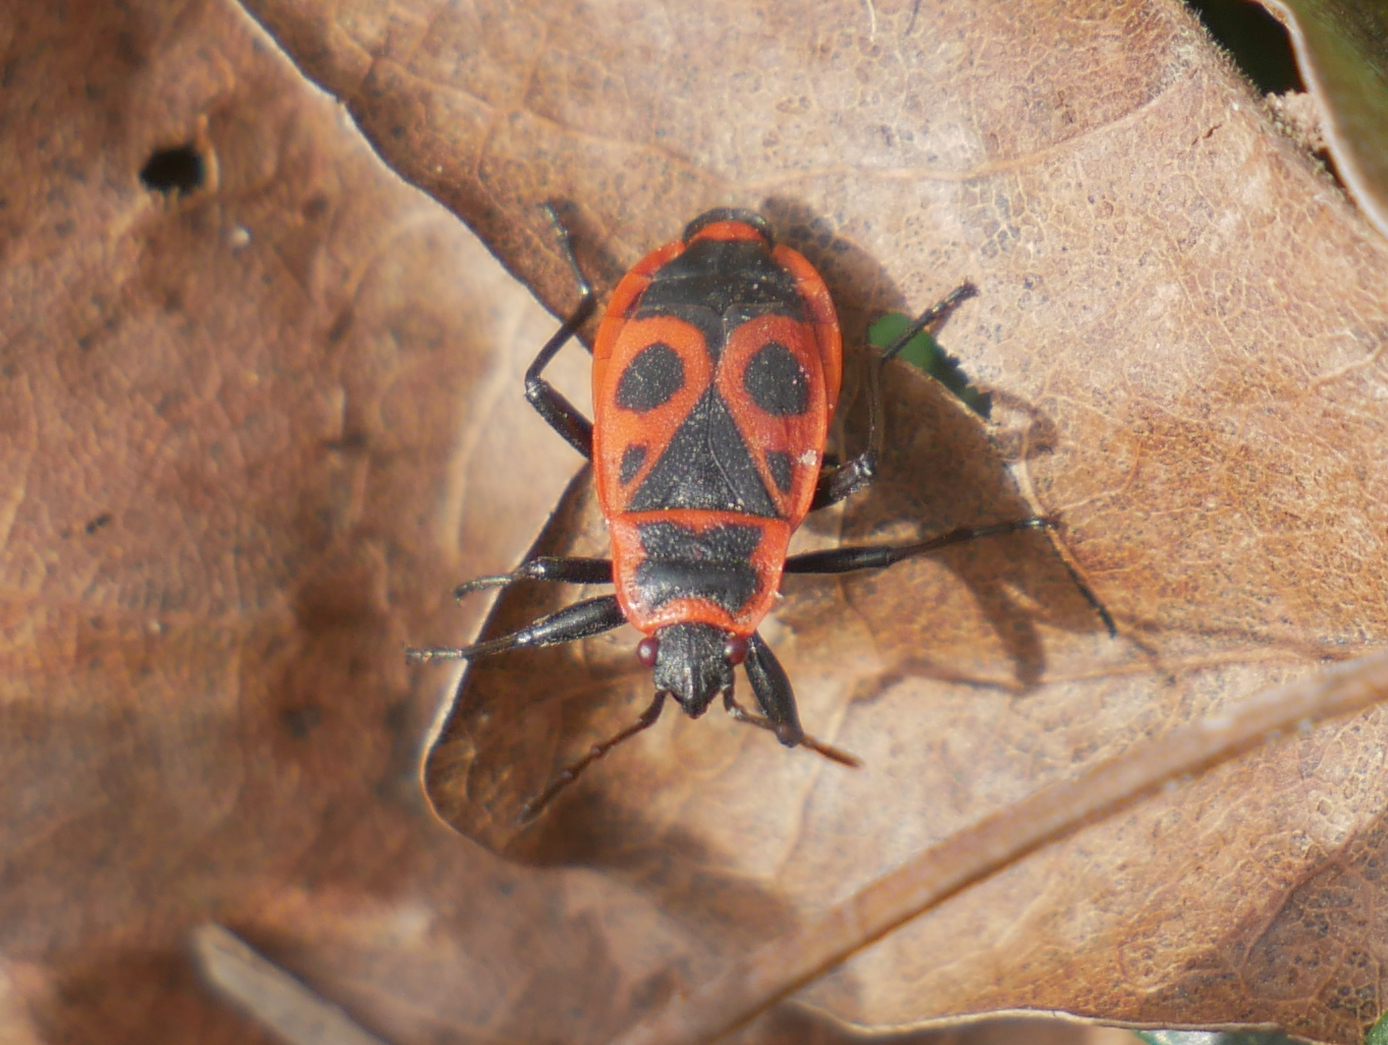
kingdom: Animalia
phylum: Arthropoda
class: Insecta
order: Hemiptera
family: Pyrrhocoridae
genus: Pyrrhocoris
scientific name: Pyrrhocoris apterus
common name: Firebug
